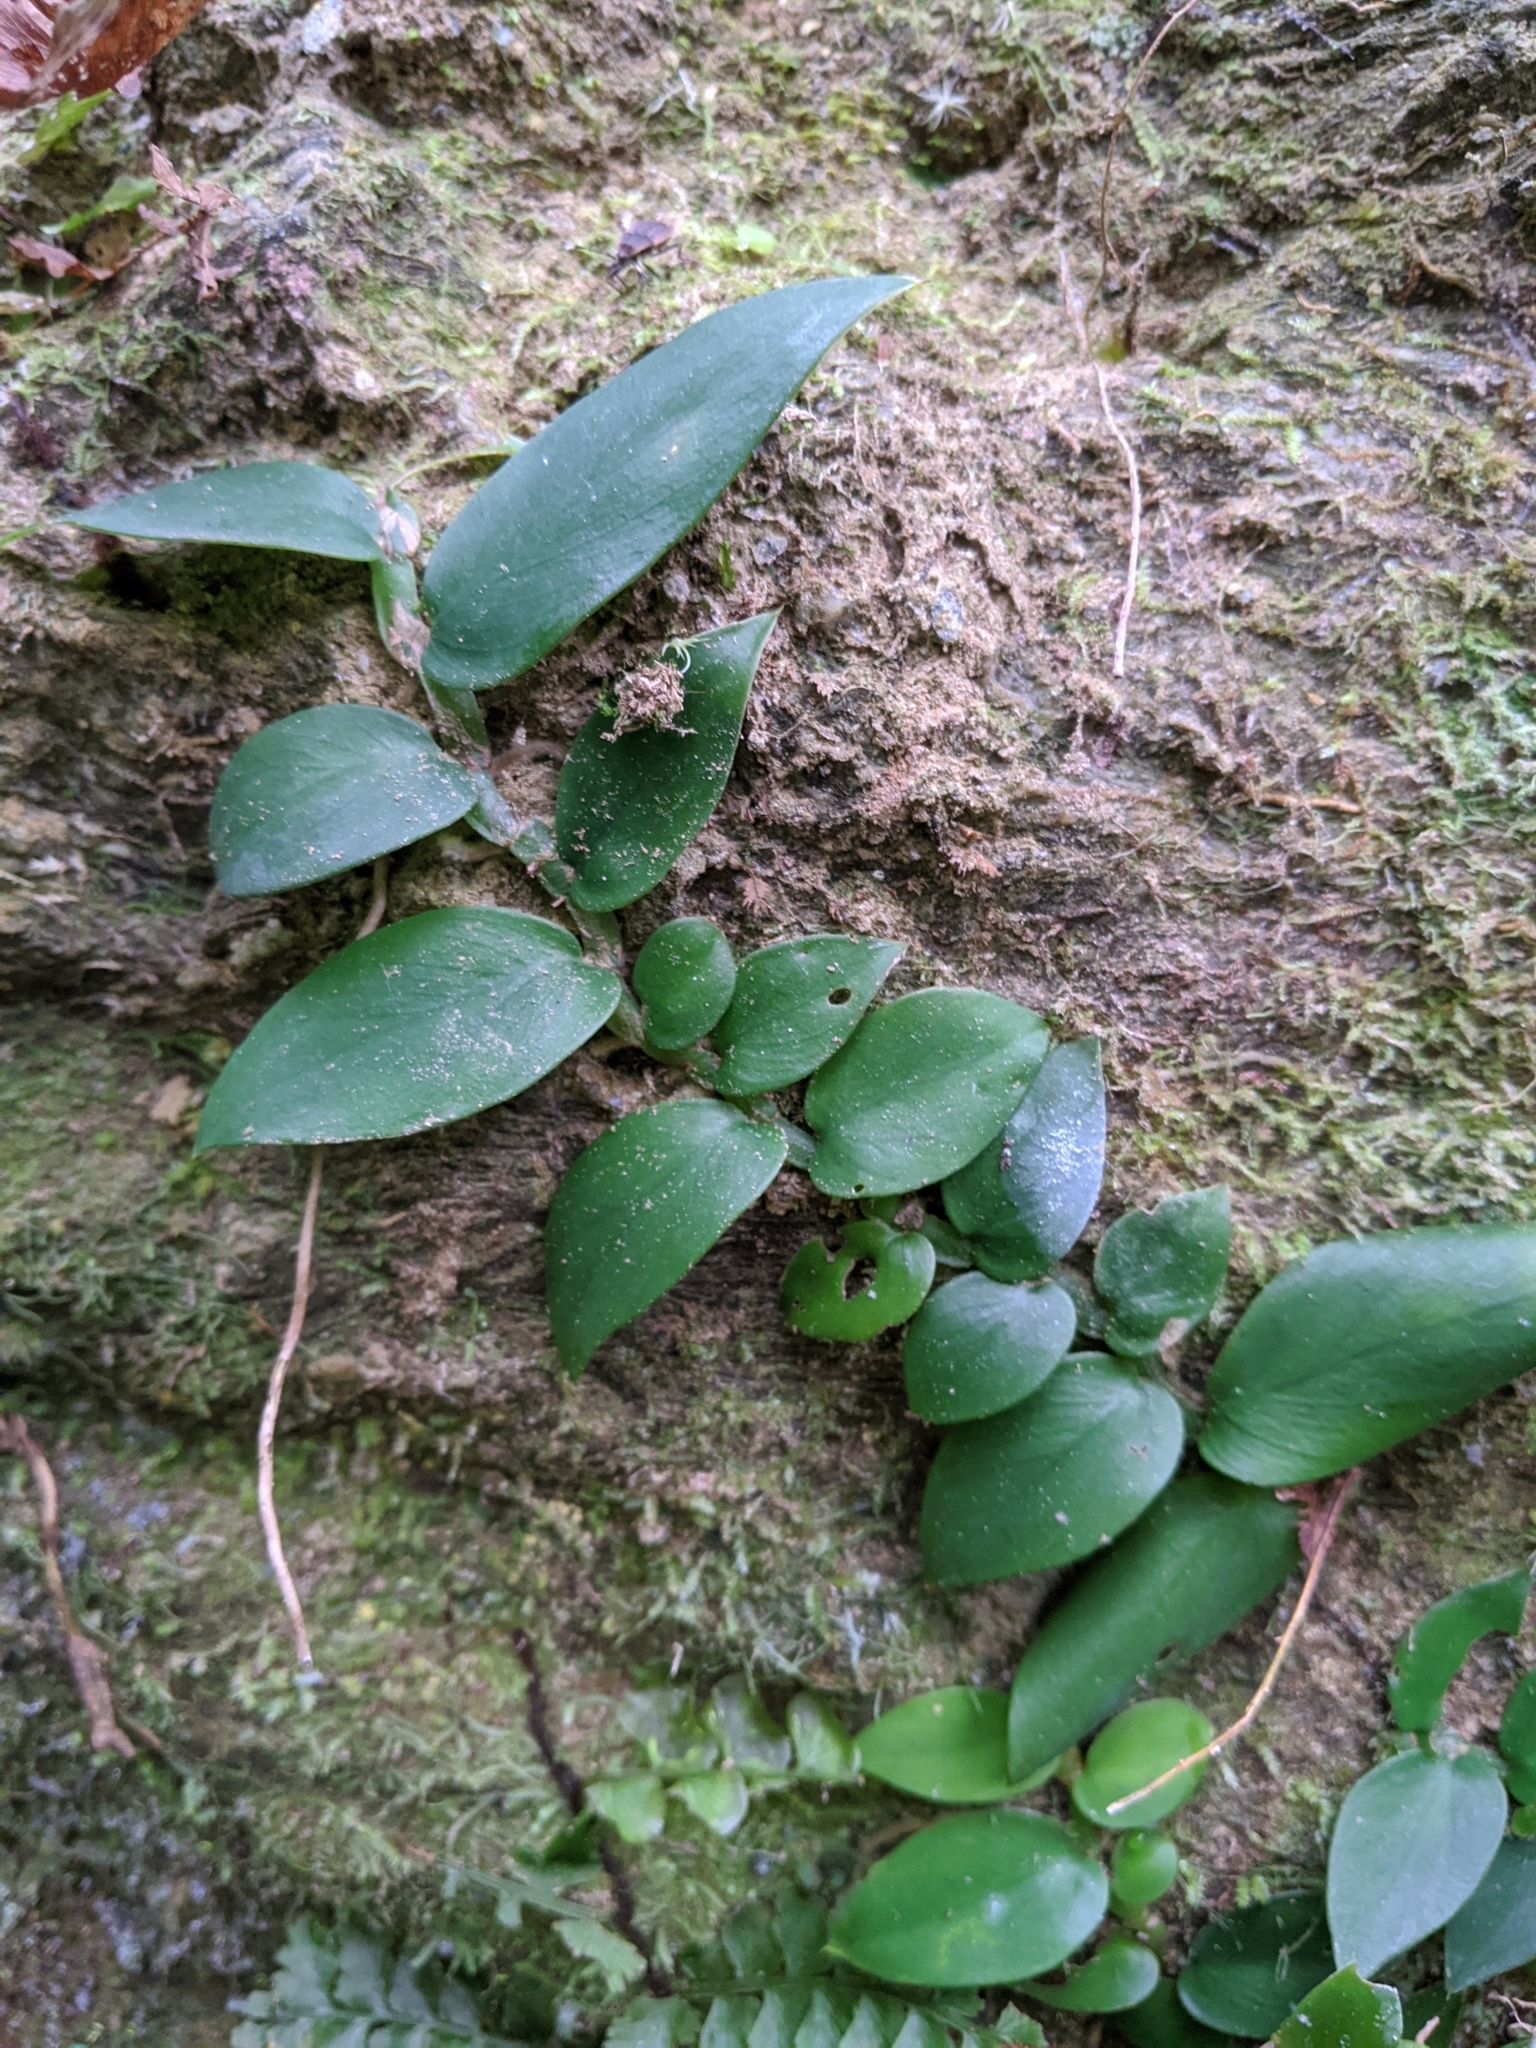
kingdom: Plantae
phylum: Tracheophyta
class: Liliopsida
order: Alismatales
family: Araceae
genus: Rhaphidophora
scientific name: Rhaphidophora hongkongensis
